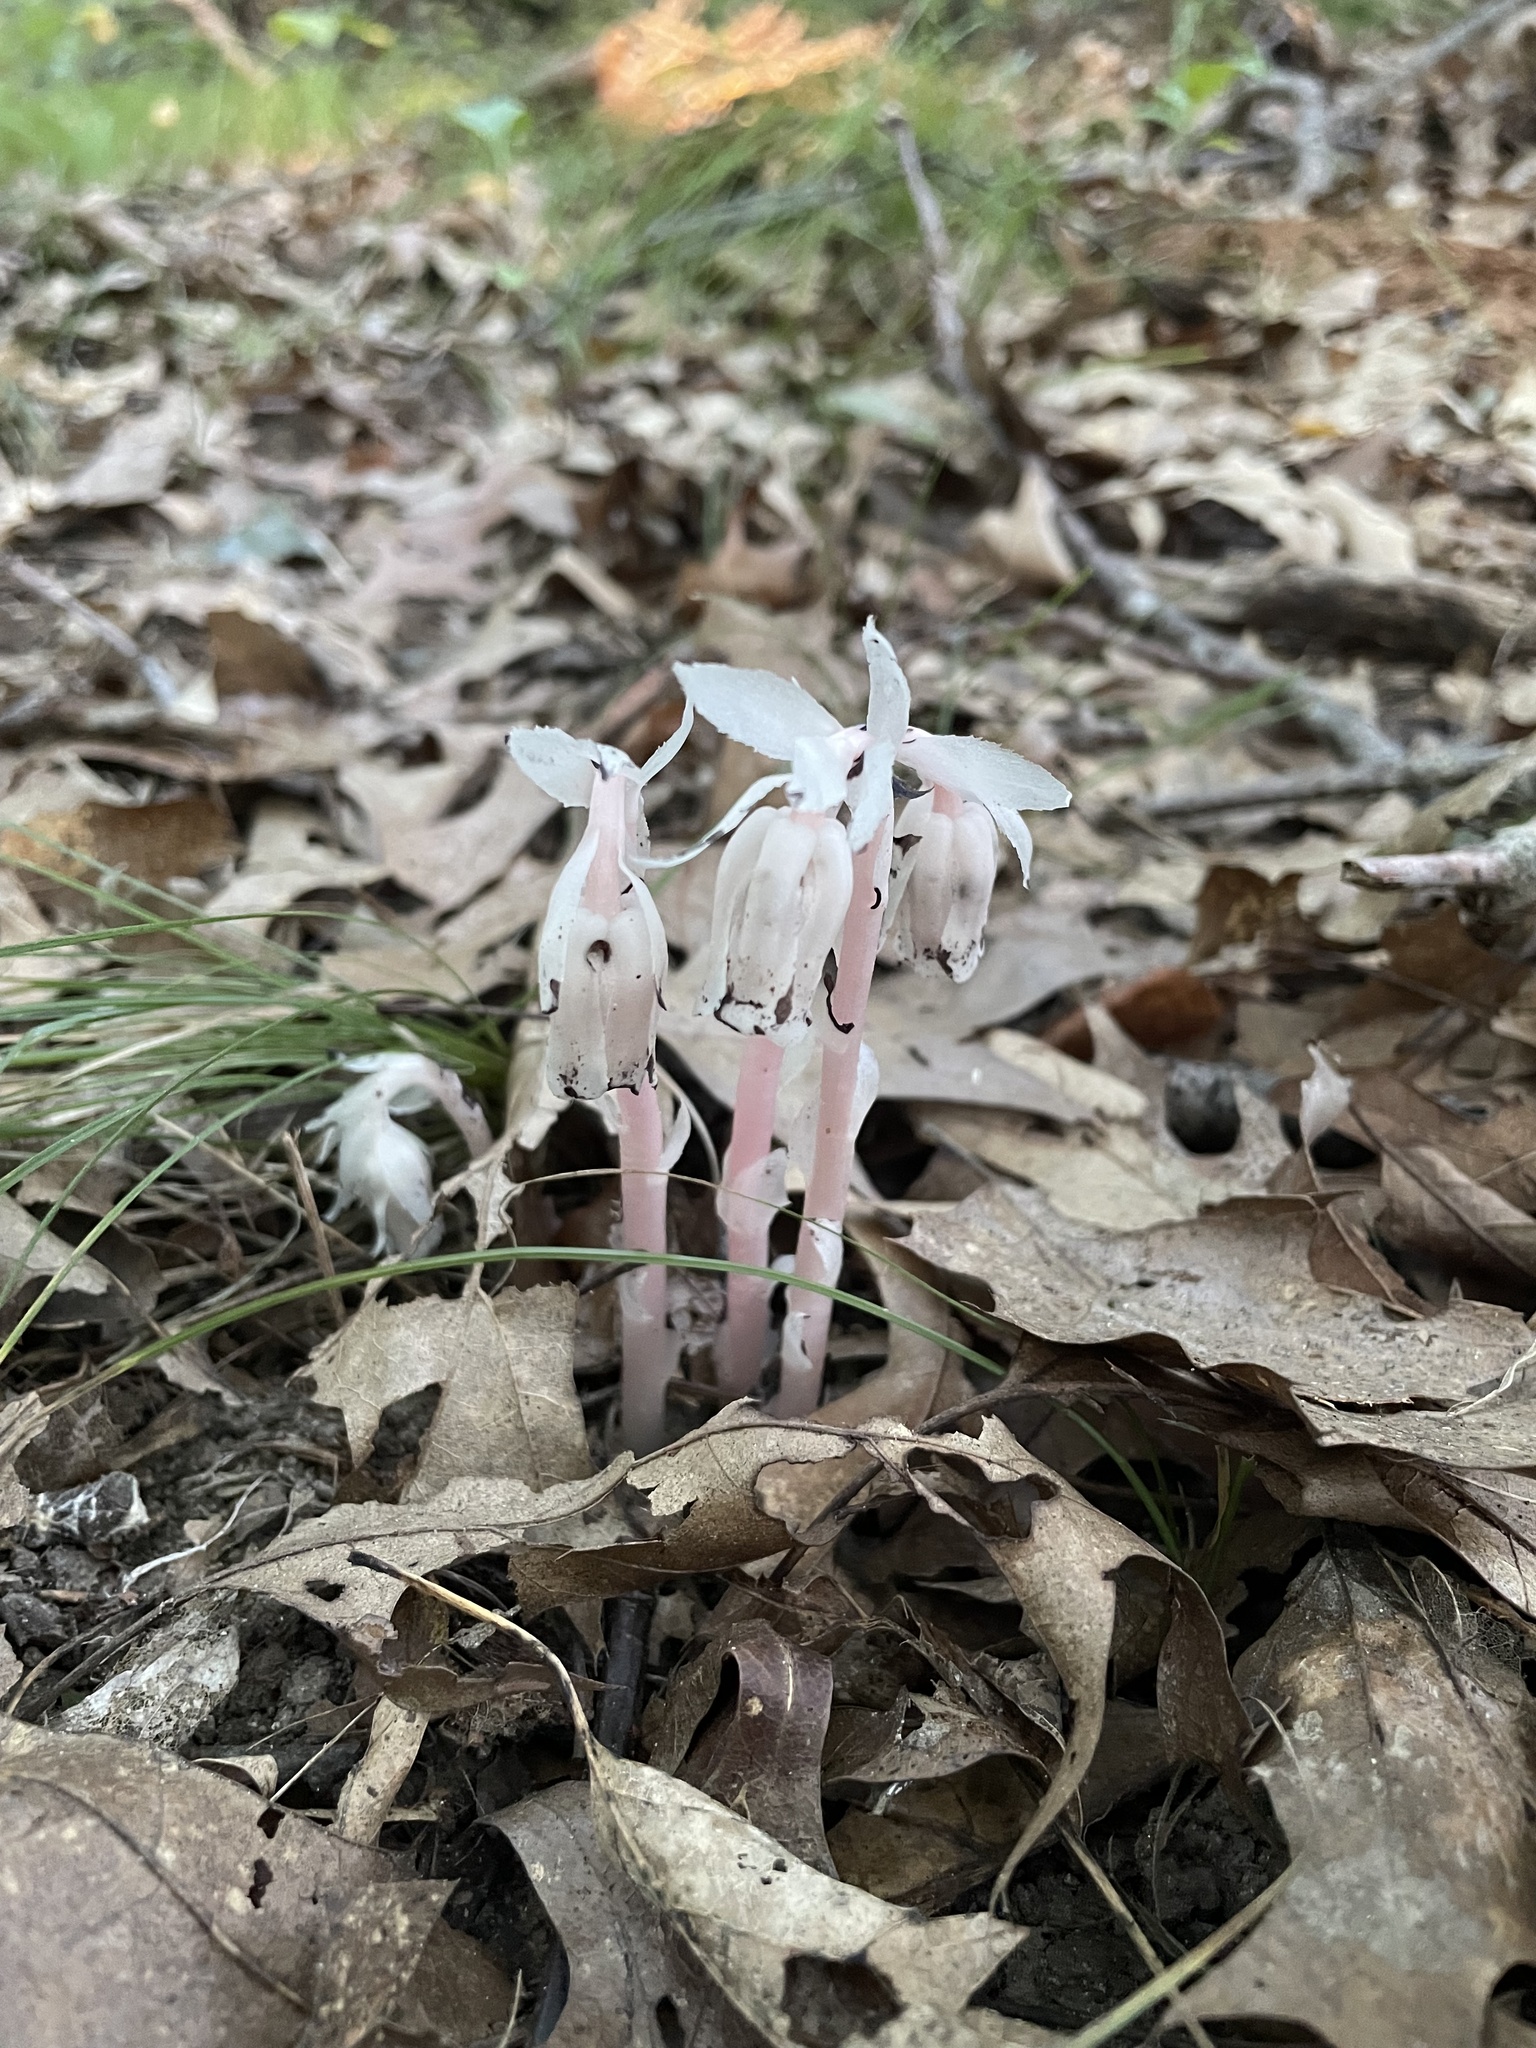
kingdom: Plantae
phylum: Tracheophyta
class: Magnoliopsida
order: Ericales
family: Ericaceae
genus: Monotropa
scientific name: Monotropa uniflora
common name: Convulsion root
